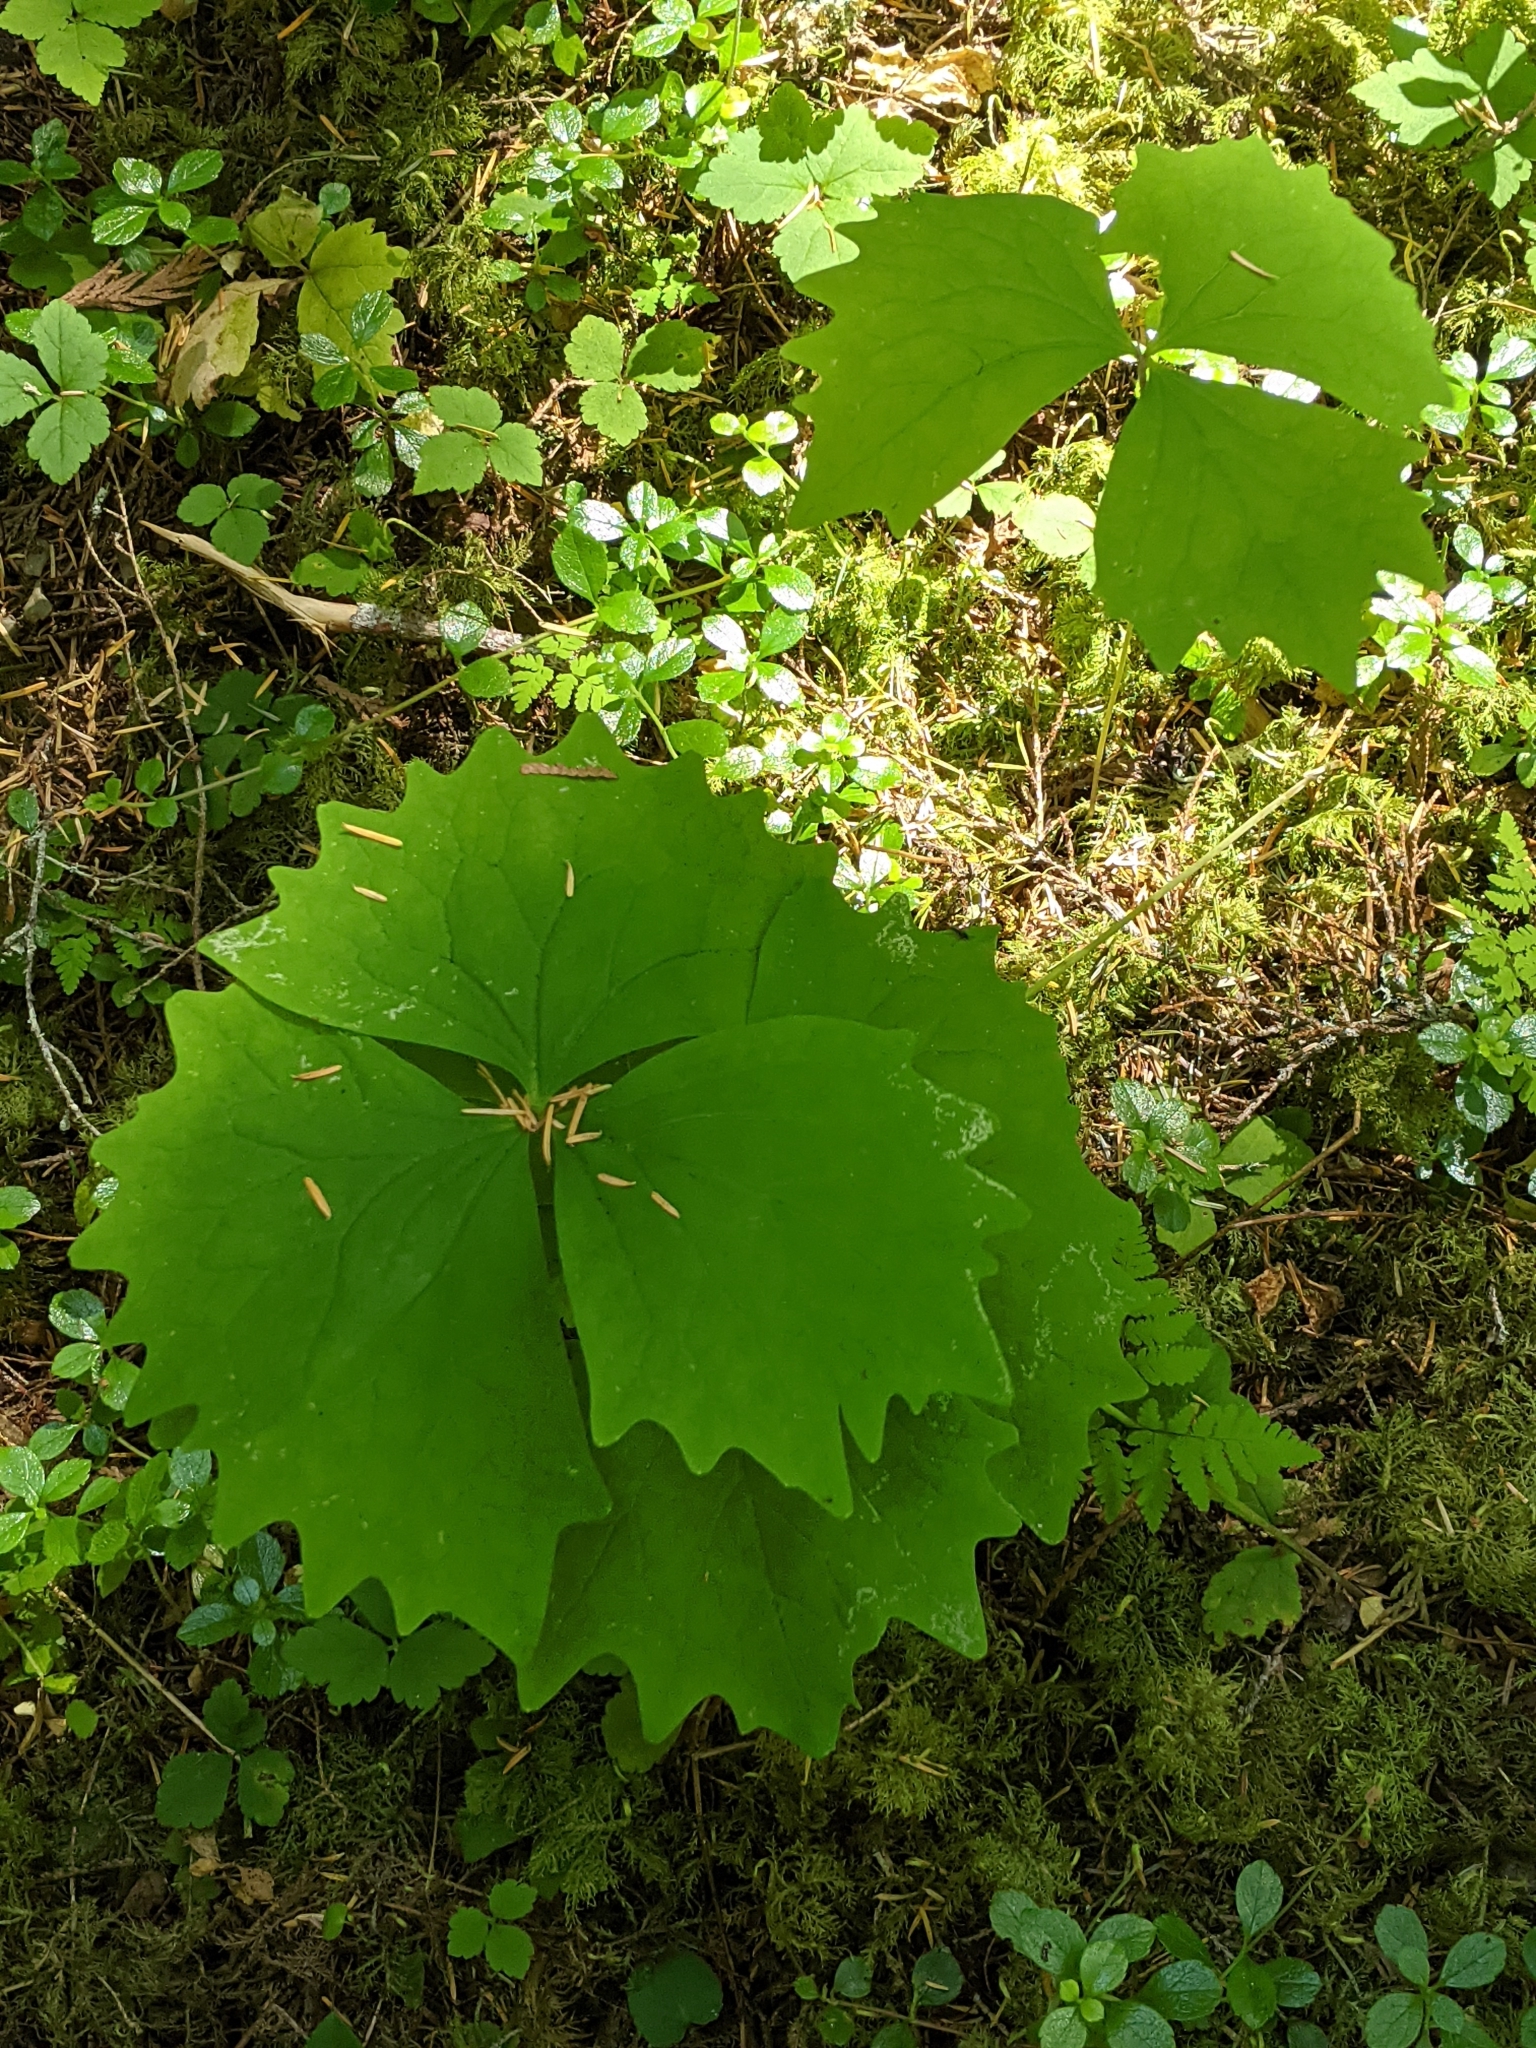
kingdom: Plantae
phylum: Tracheophyta
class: Magnoliopsida
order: Ranunculales
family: Berberidaceae
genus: Achlys
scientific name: Achlys californica
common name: California deer-foot
